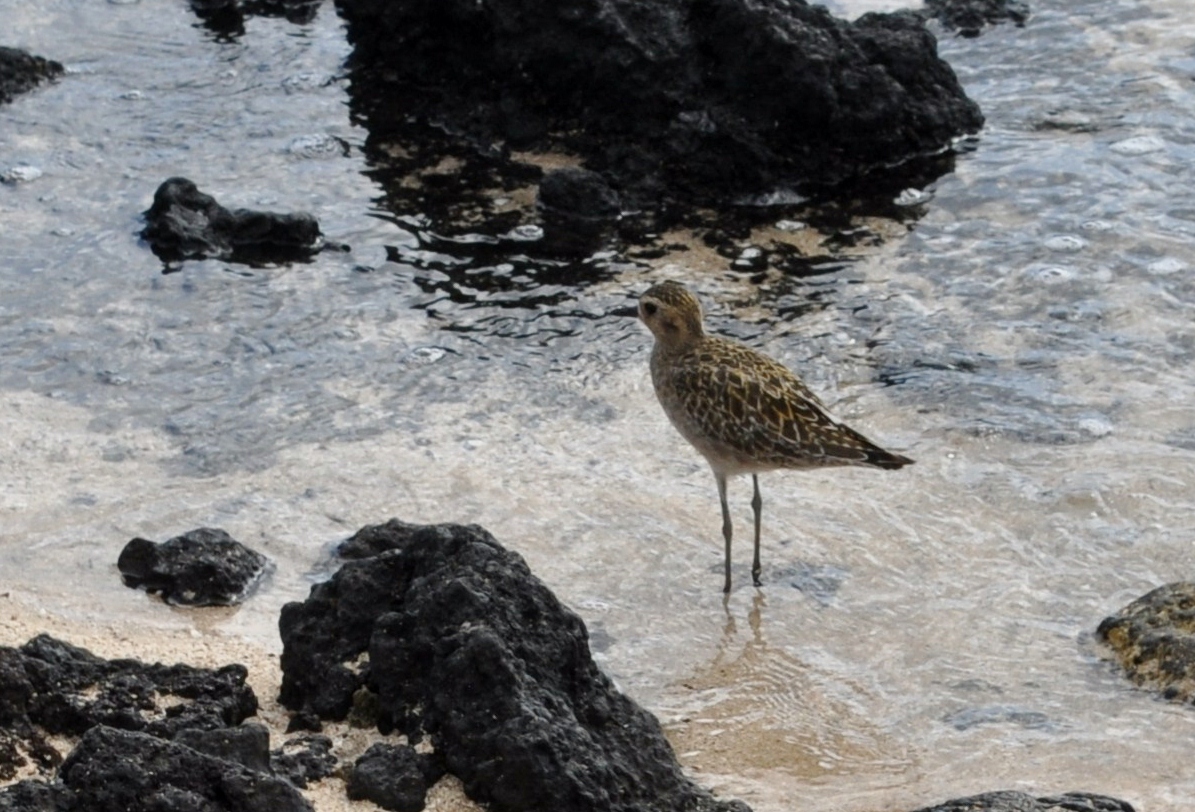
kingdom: Animalia
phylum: Chordata
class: Aves
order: Charadriiformes
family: Charadriidae
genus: Pluvialis
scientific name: Pluvialis fulva
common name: Pacific golden plover
